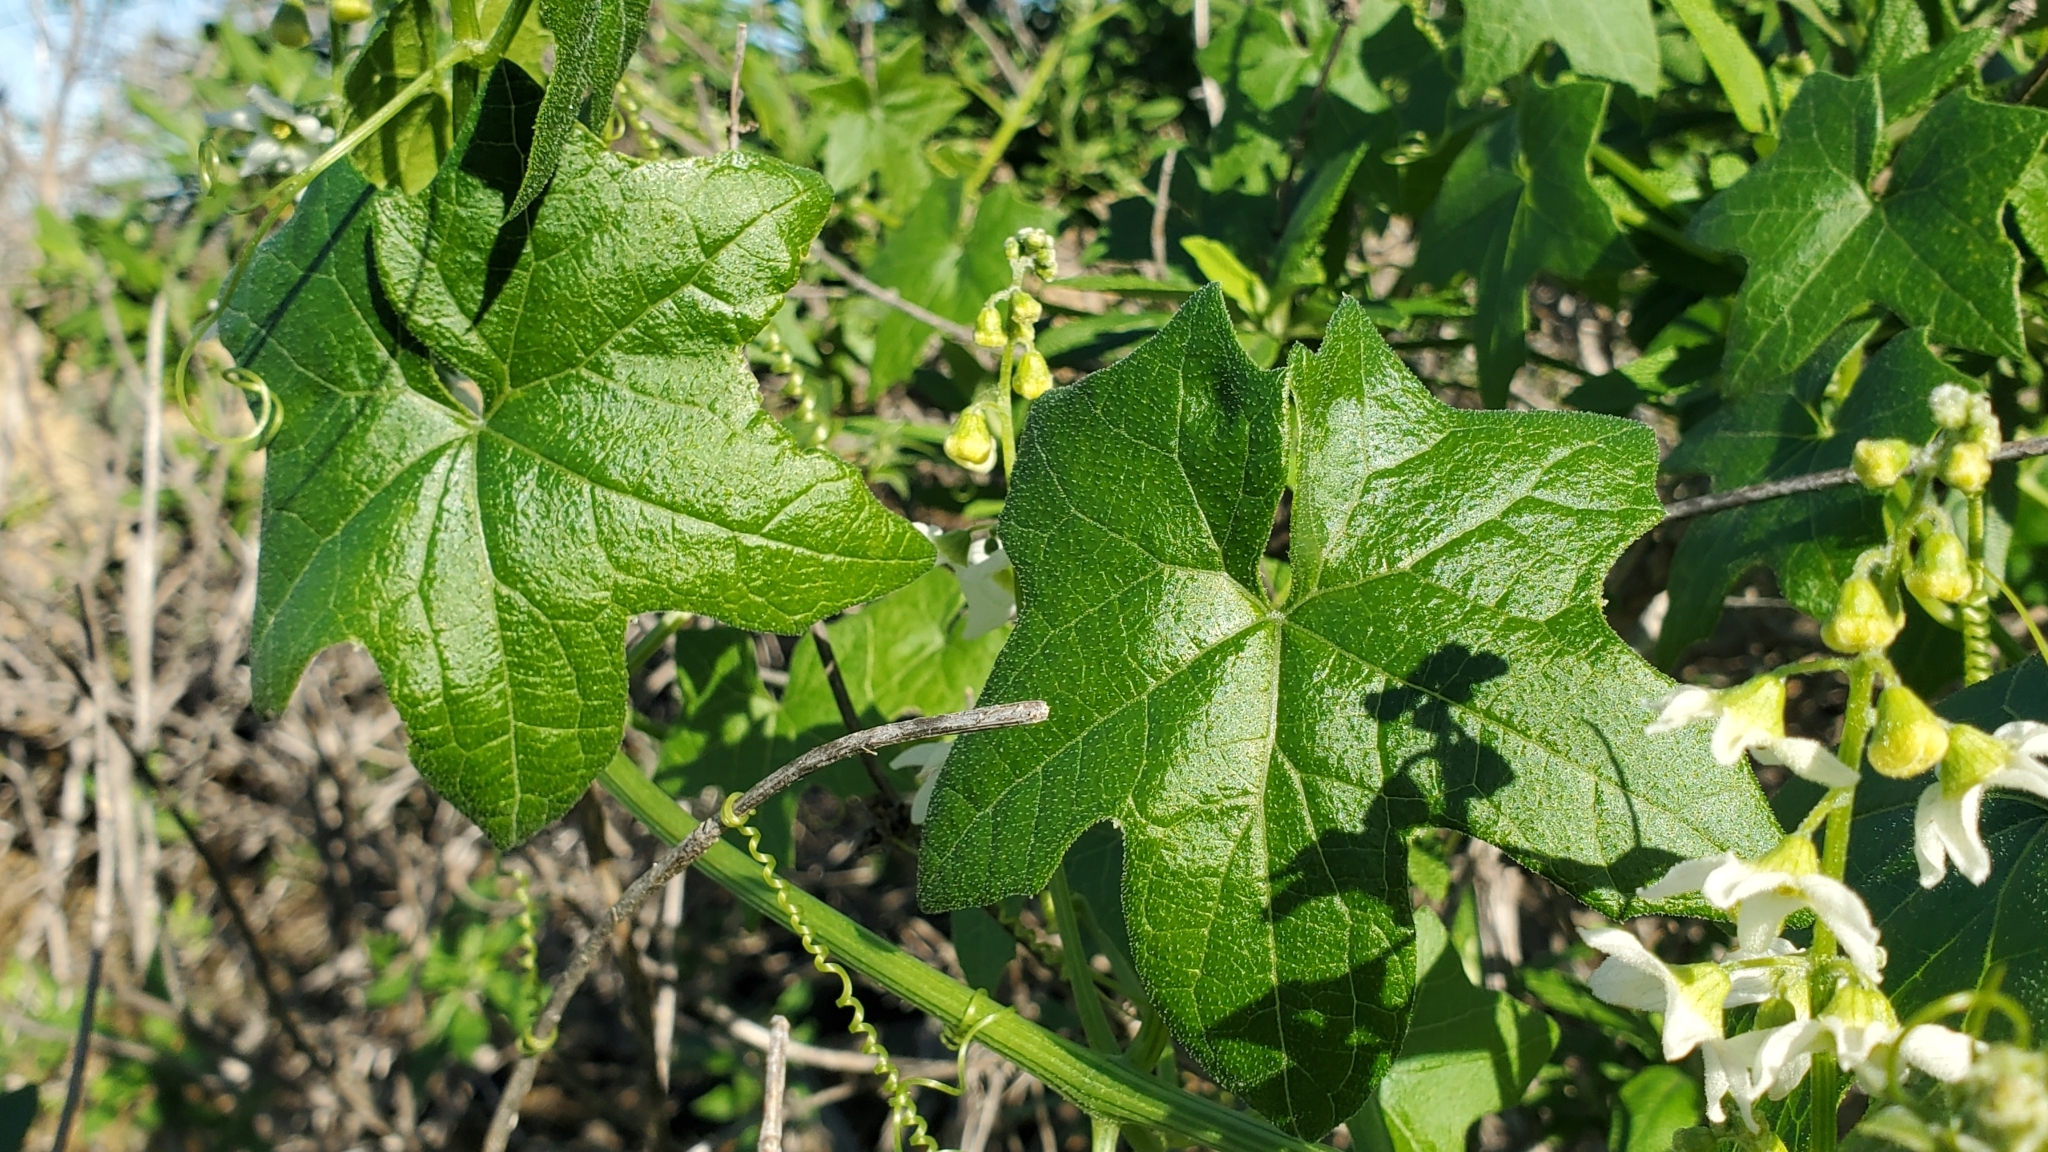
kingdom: Plantae
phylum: Tracheophyta
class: Magnoliopsida
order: Cucurbitales
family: Cucurbitaceae
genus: Marah
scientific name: Marah macrocarpa
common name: Cucamonga manroot
